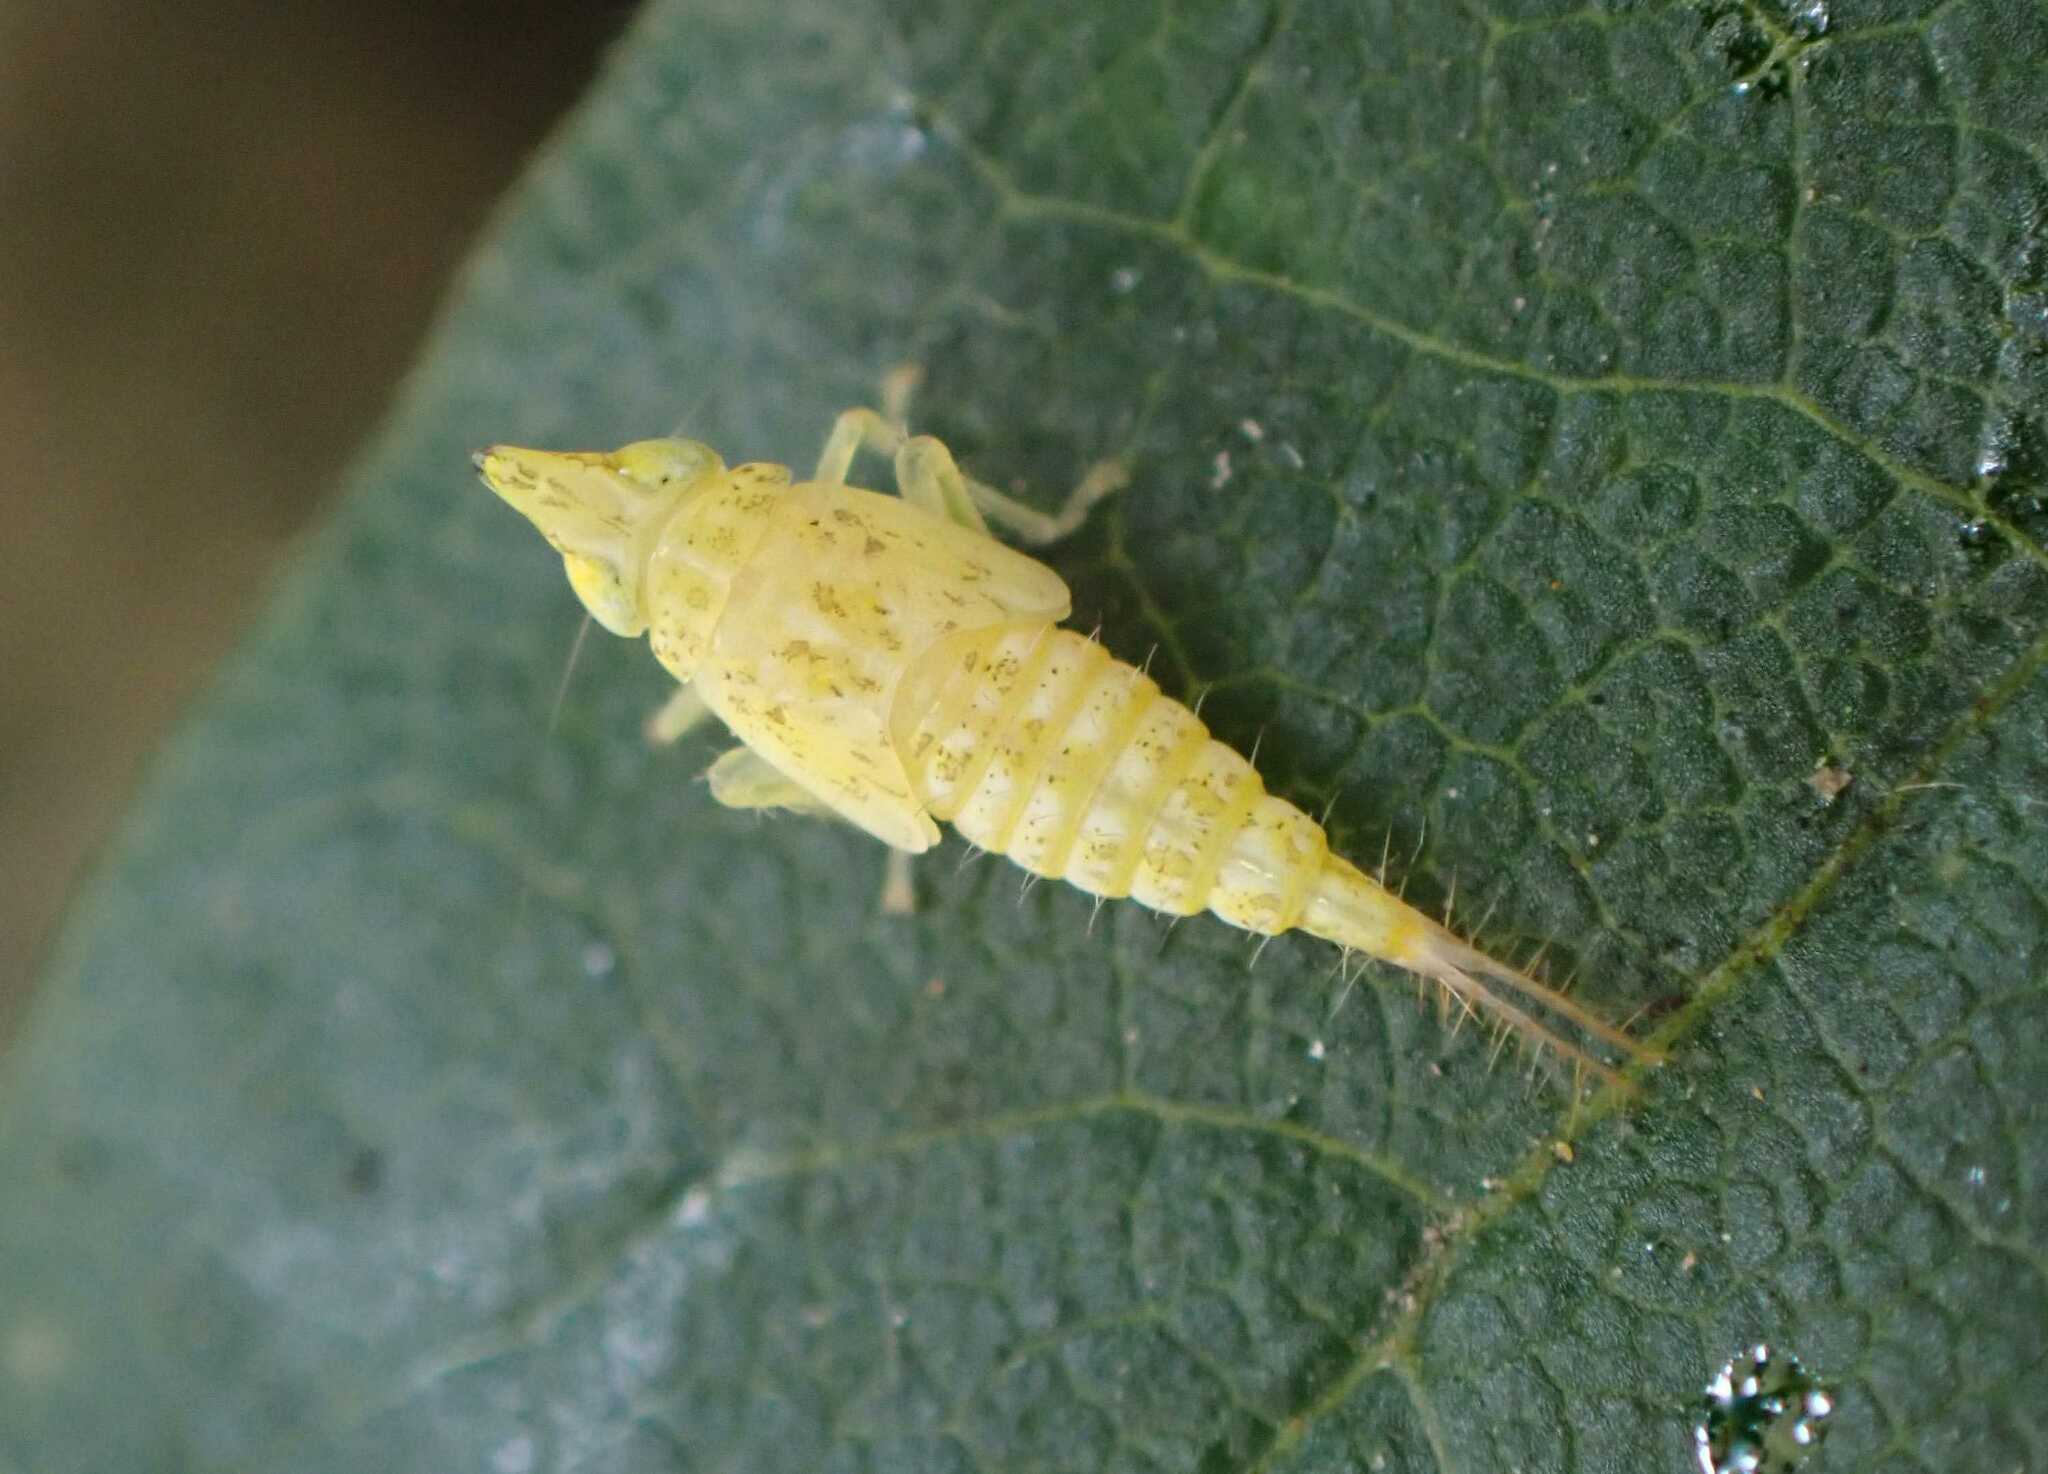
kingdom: Animalia
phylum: Arthropoda
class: Insecta
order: Hemiptera
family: Cicadellidae
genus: Japananus
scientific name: Japananus hyalinus
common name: The japanese maple leafhopper
